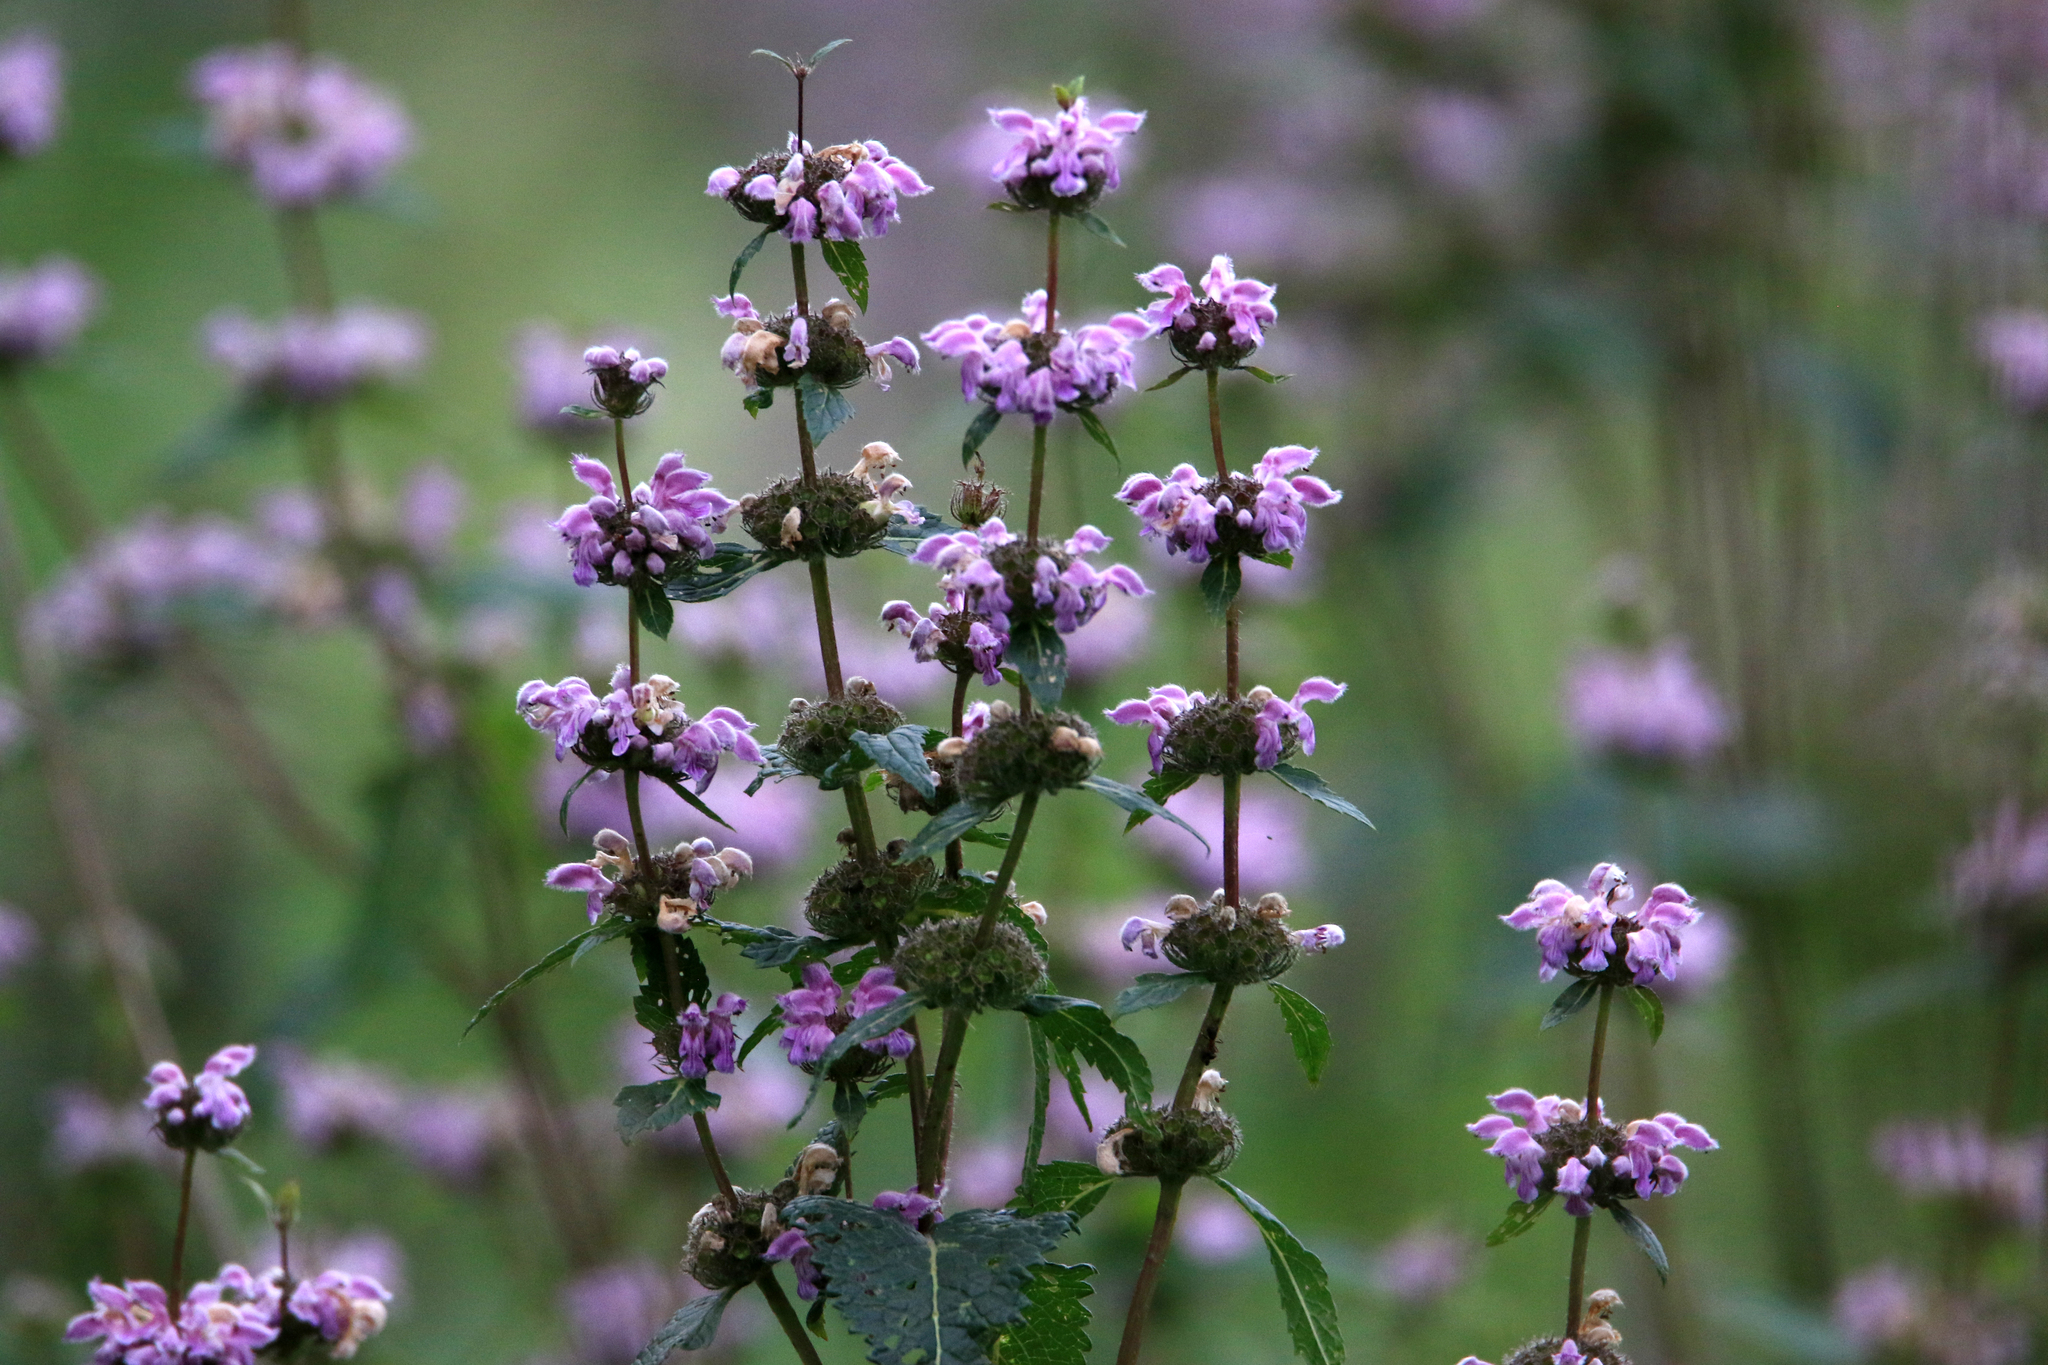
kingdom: Plantae
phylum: Tracheophyta
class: Magnoliopsida
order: Lamiales
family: Lamiaceae
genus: Phlomoides
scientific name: Phlomoides tuberosa
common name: Tuberous jerusalem sage
